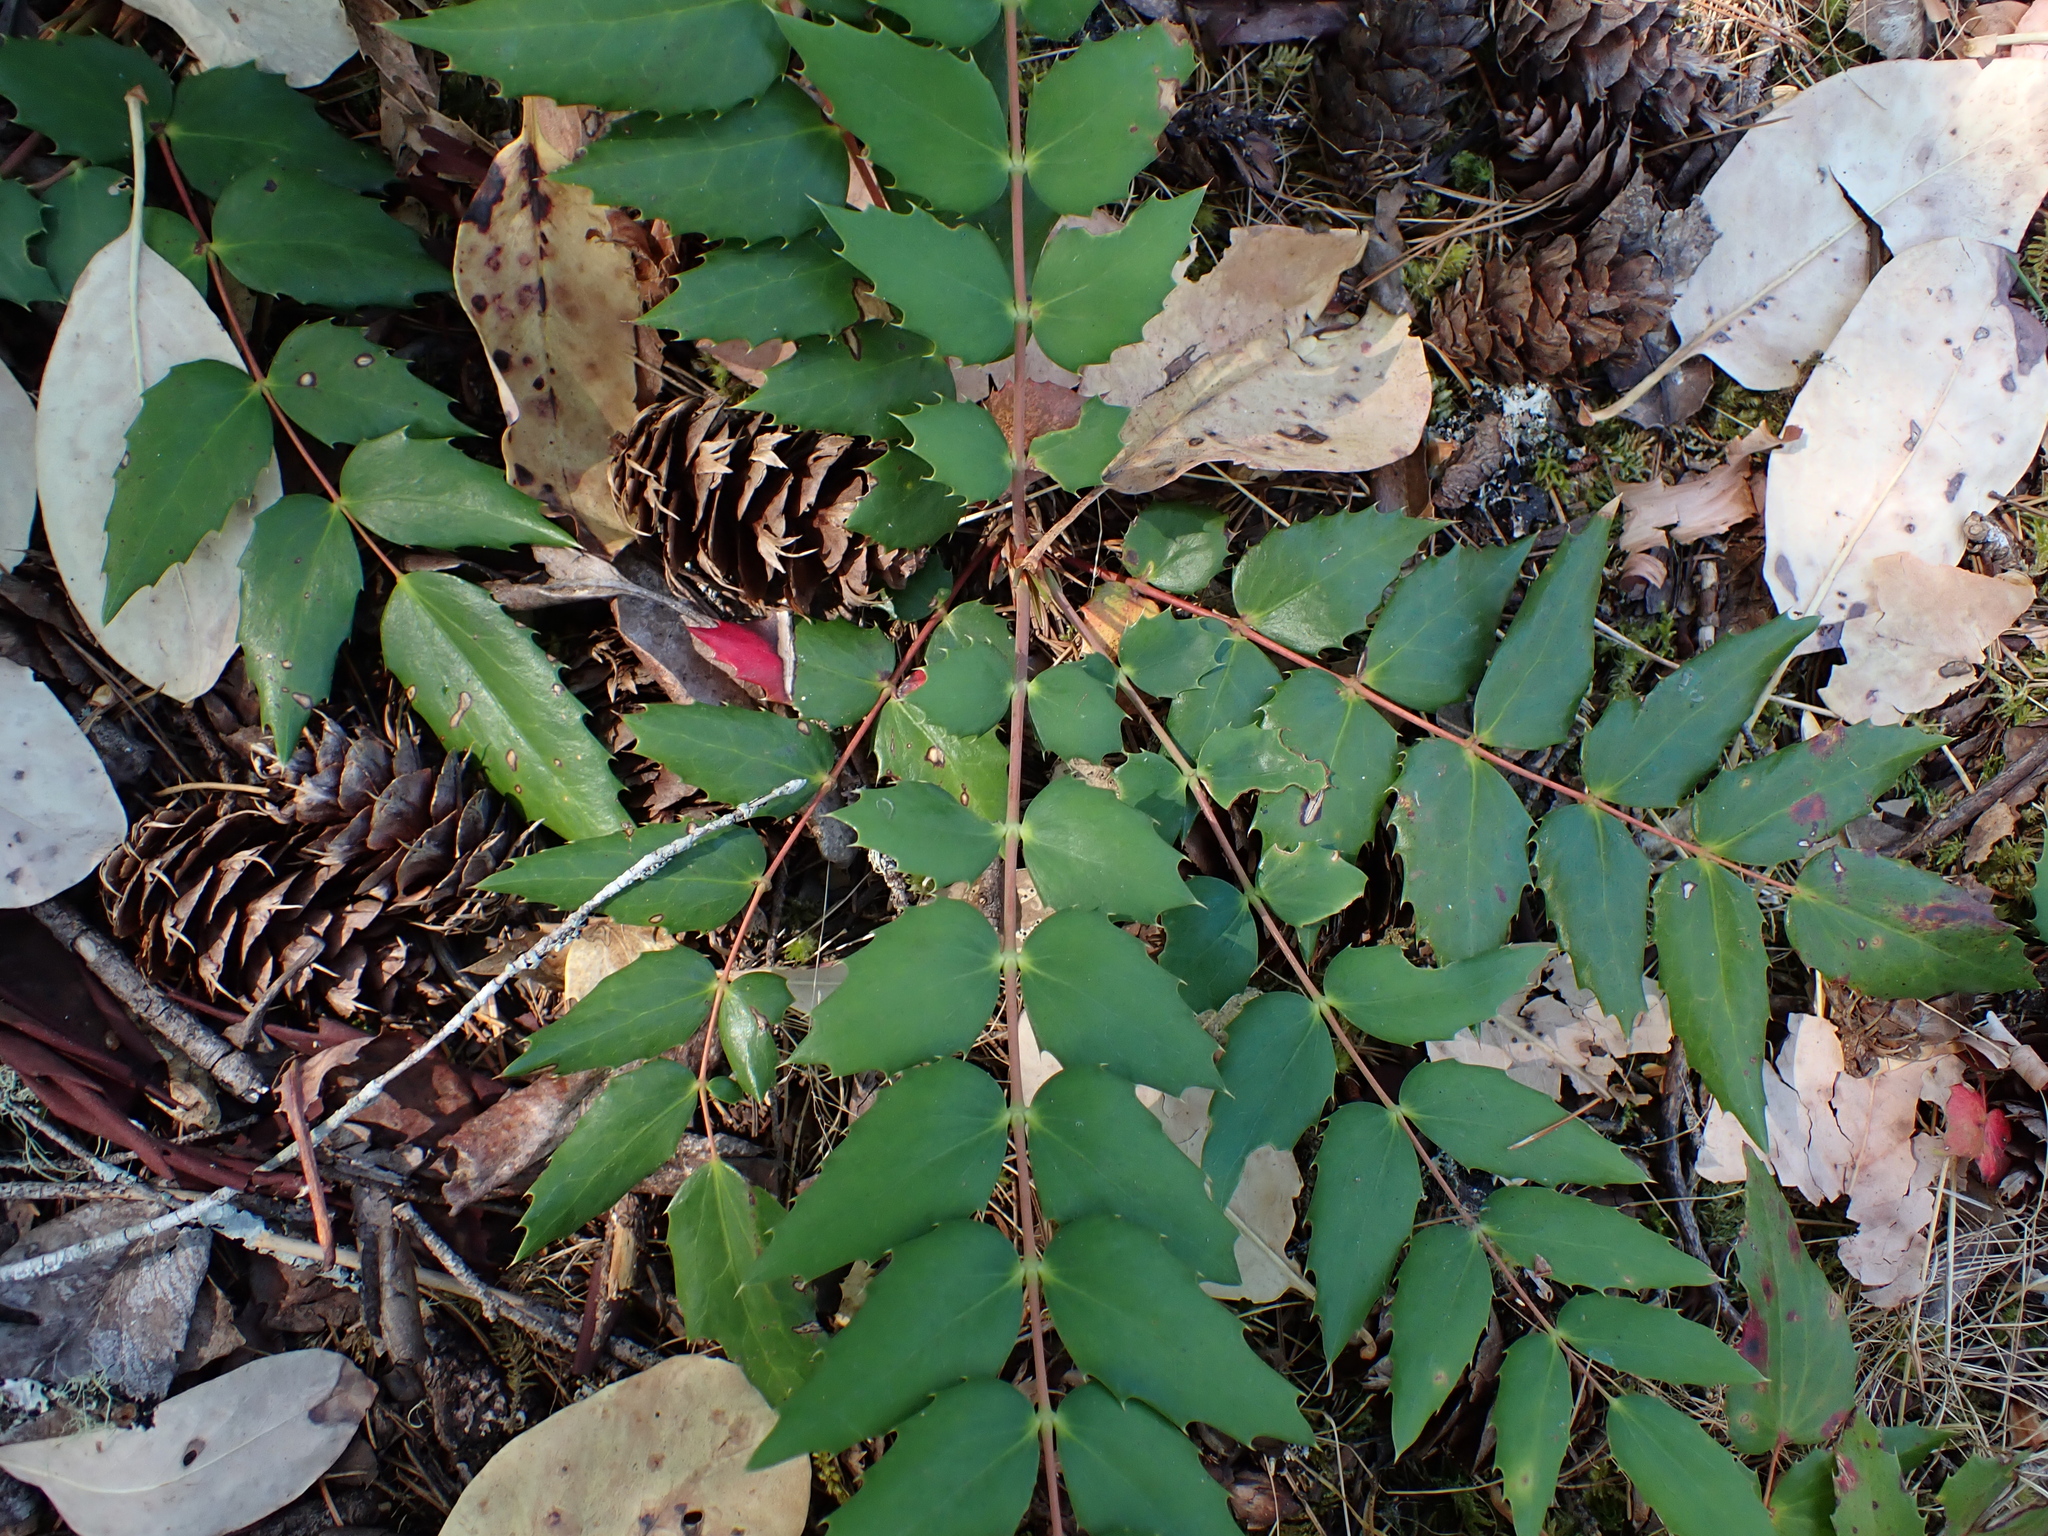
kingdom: Plantae
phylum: Tracheophyta
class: Magnoliopsida
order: Ranunculales
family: Berberidaceae
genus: Mahonia
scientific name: Mahonia nervosa
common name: Cascade oregon-grape
